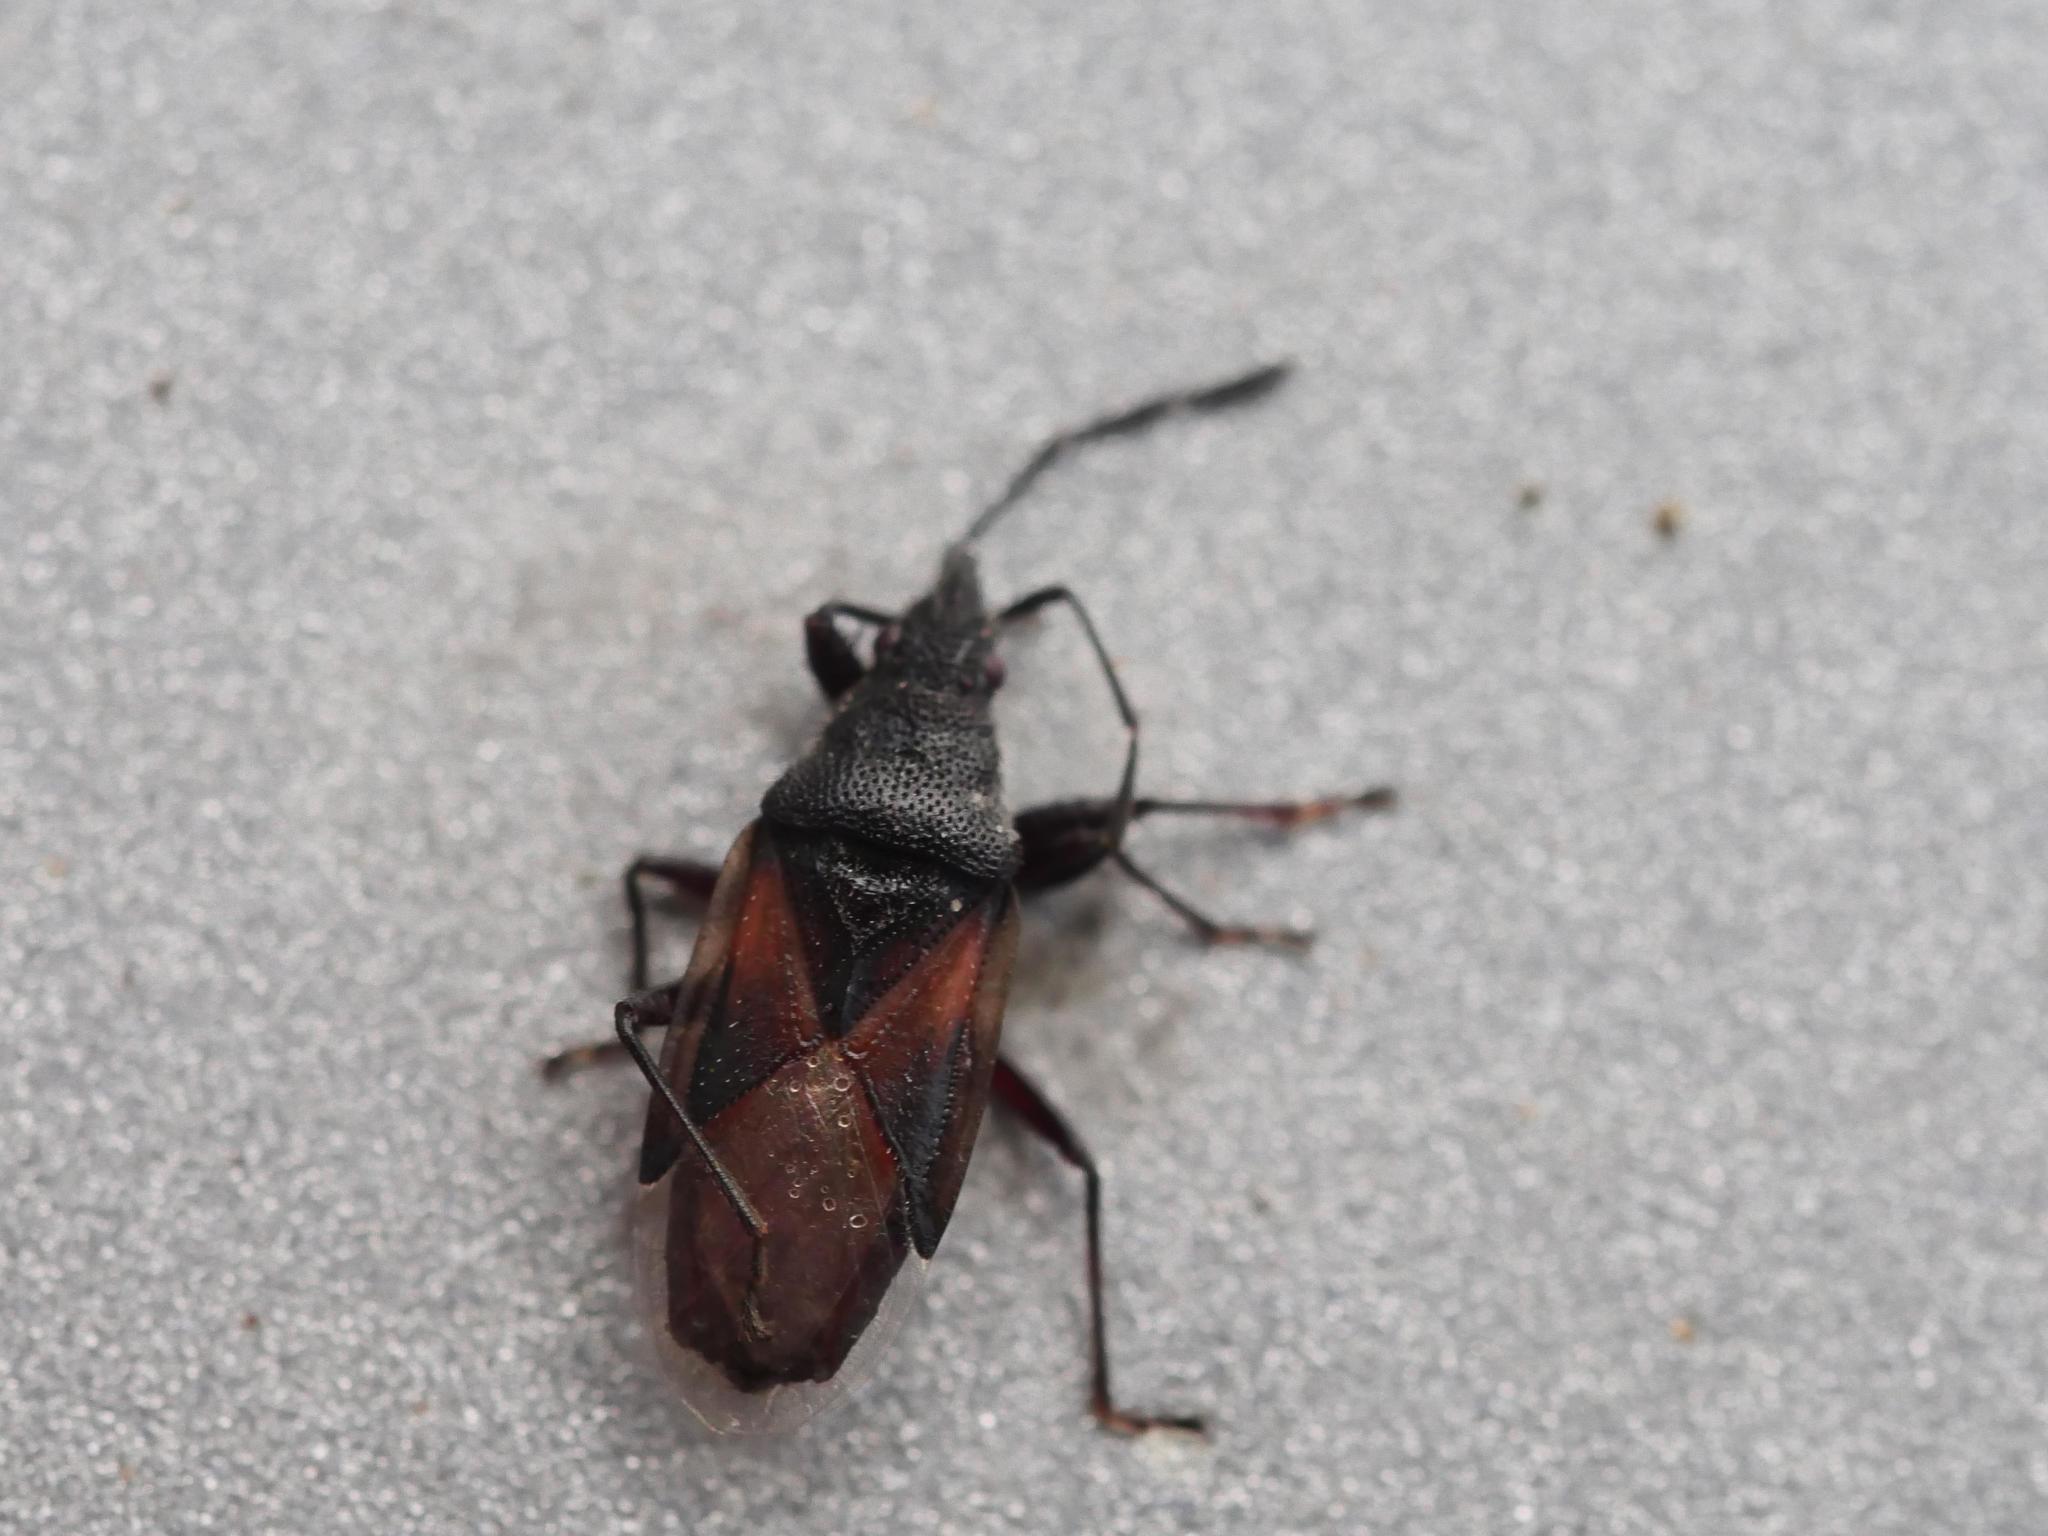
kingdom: Animalia
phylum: Arthropoda
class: Insecta
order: Hemiptera
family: Oxycarenidae
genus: Oxycarenus
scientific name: Oxycarenus lavaterae
